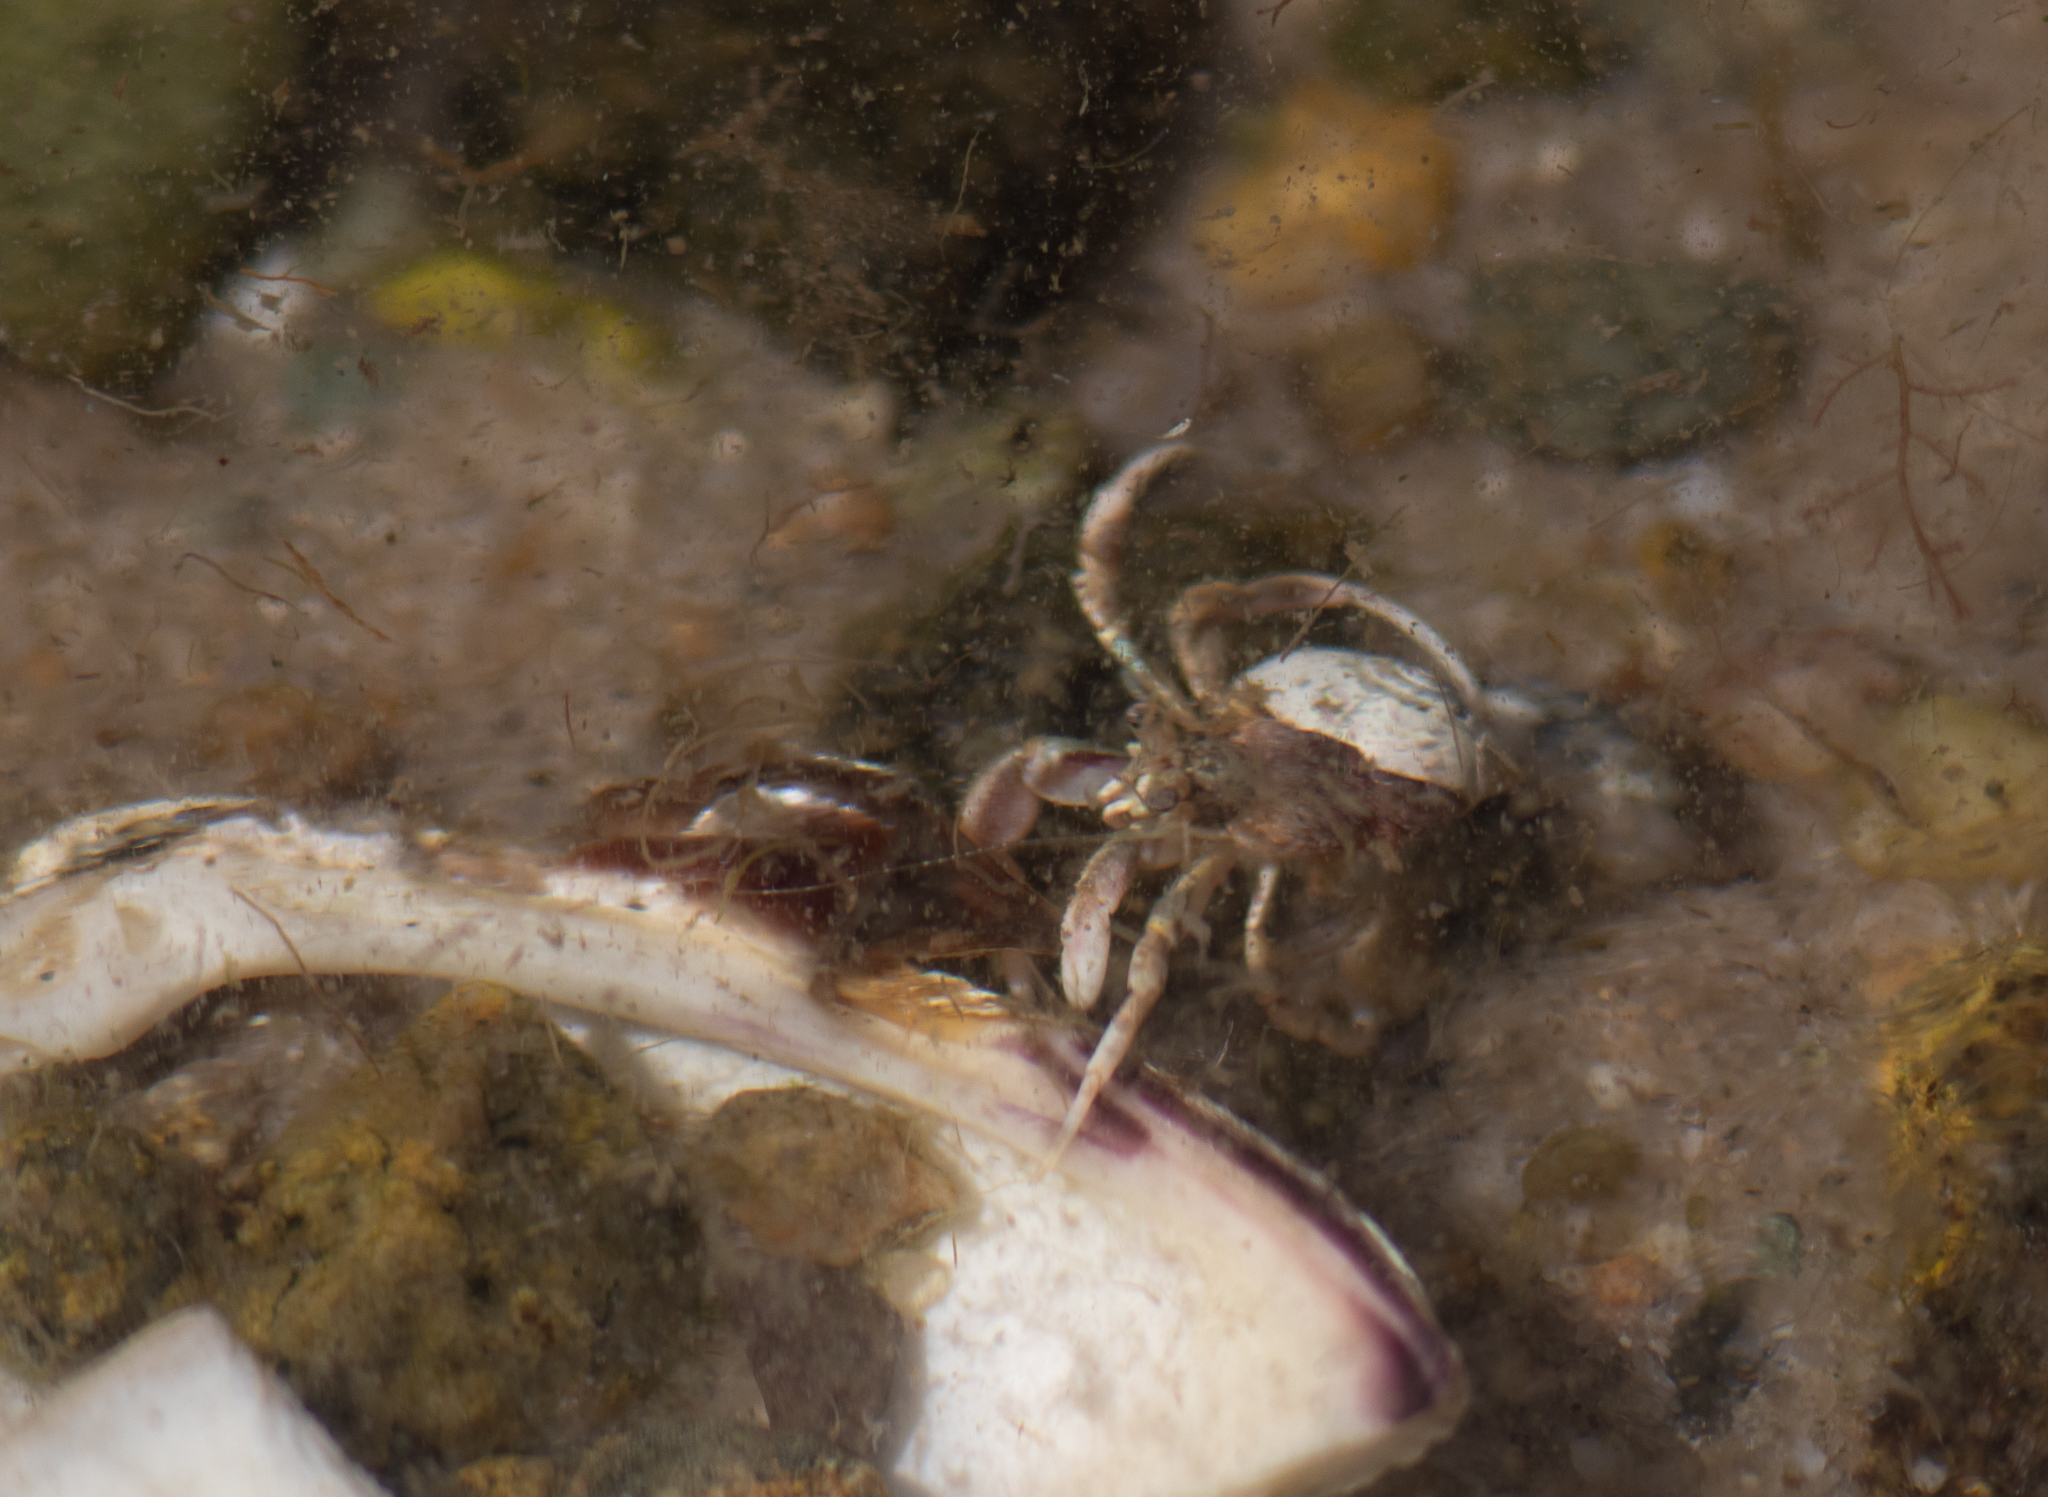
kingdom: Animalia
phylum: Arthropoda
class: Malacostraca
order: Decapoda
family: Paguridae
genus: Pagurus
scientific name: Pagurus longicarpus
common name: Long-armed hermit crab
